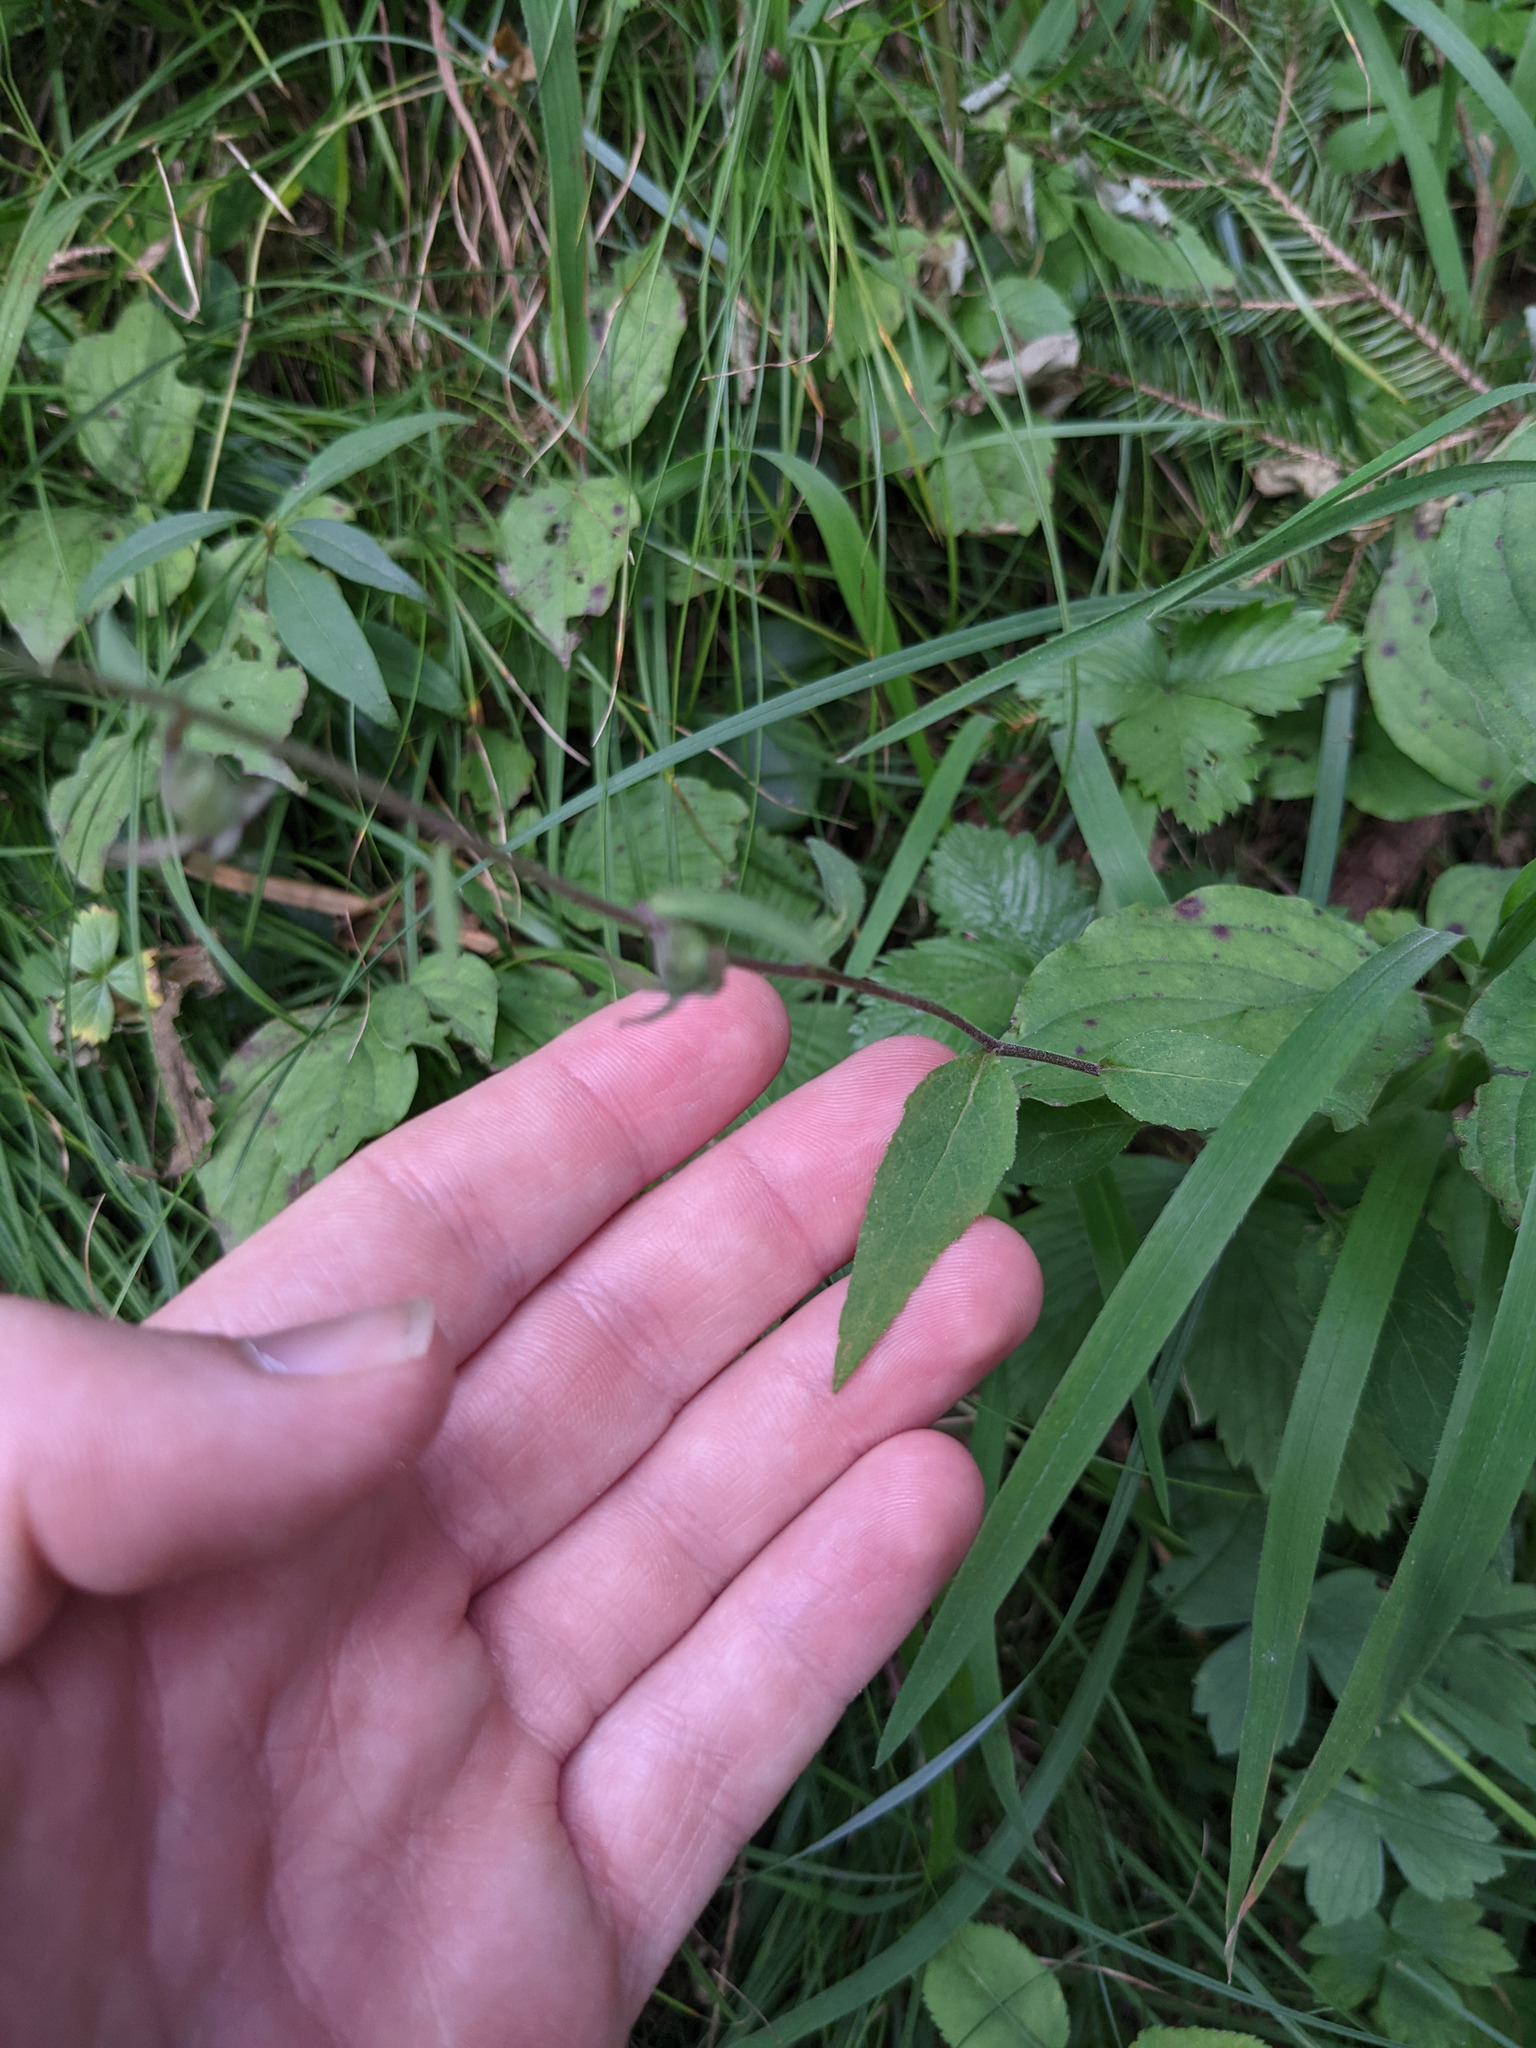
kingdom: Plantae
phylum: Tracheophyta
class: Magnoliopsida
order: Asterales
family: Campanulaceae
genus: Campanula
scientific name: Campanula rapunculoides
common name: Creeping bellflower
